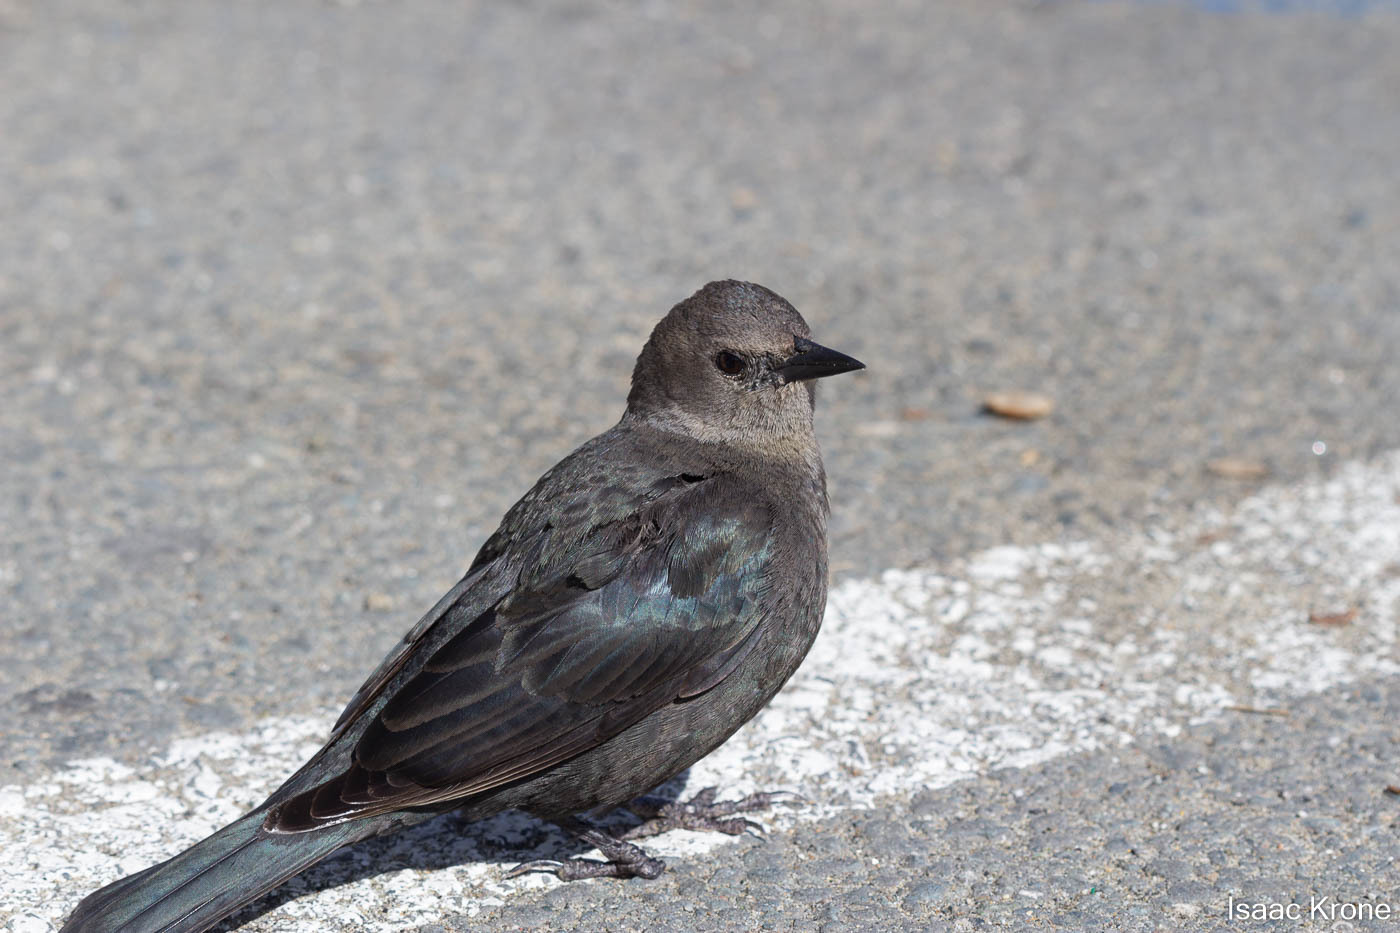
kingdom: Animalia
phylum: Chordata
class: Aves
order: Passeriformes
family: Icteridae
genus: Euphagus
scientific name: Euphagus cyanocephalus
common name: Brewer's blackbird
